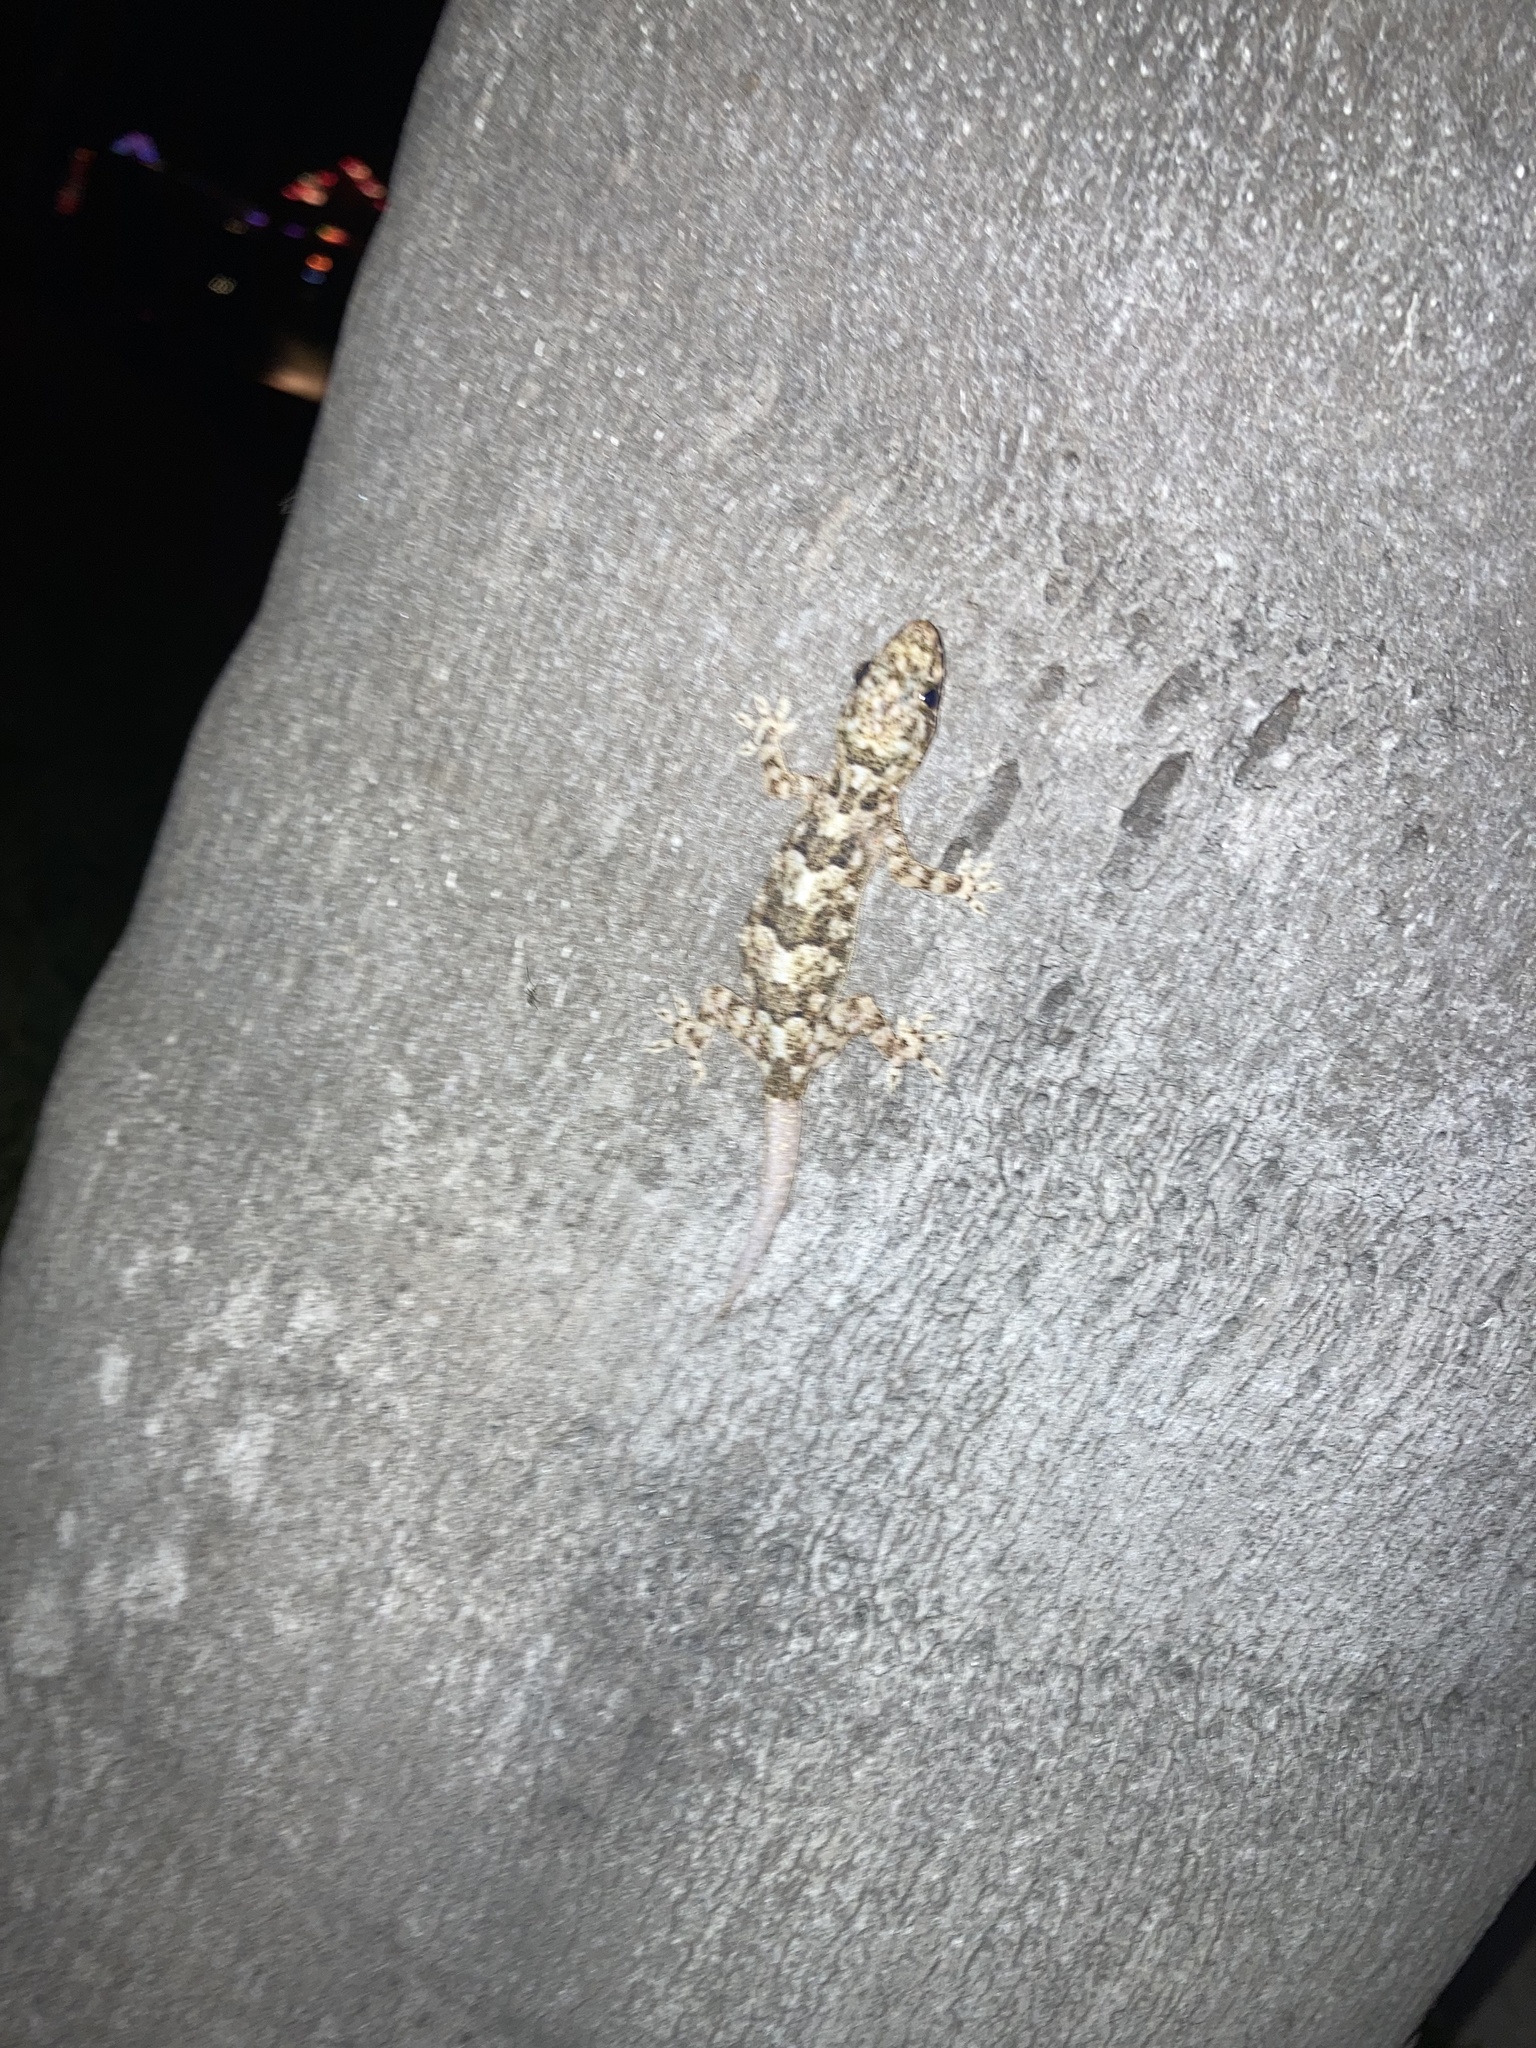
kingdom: Animalia
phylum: Chordata
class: Squamata
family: Gekkonidae
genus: Hemidactylus
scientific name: Hemidactylus mabouia
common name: House gecko
